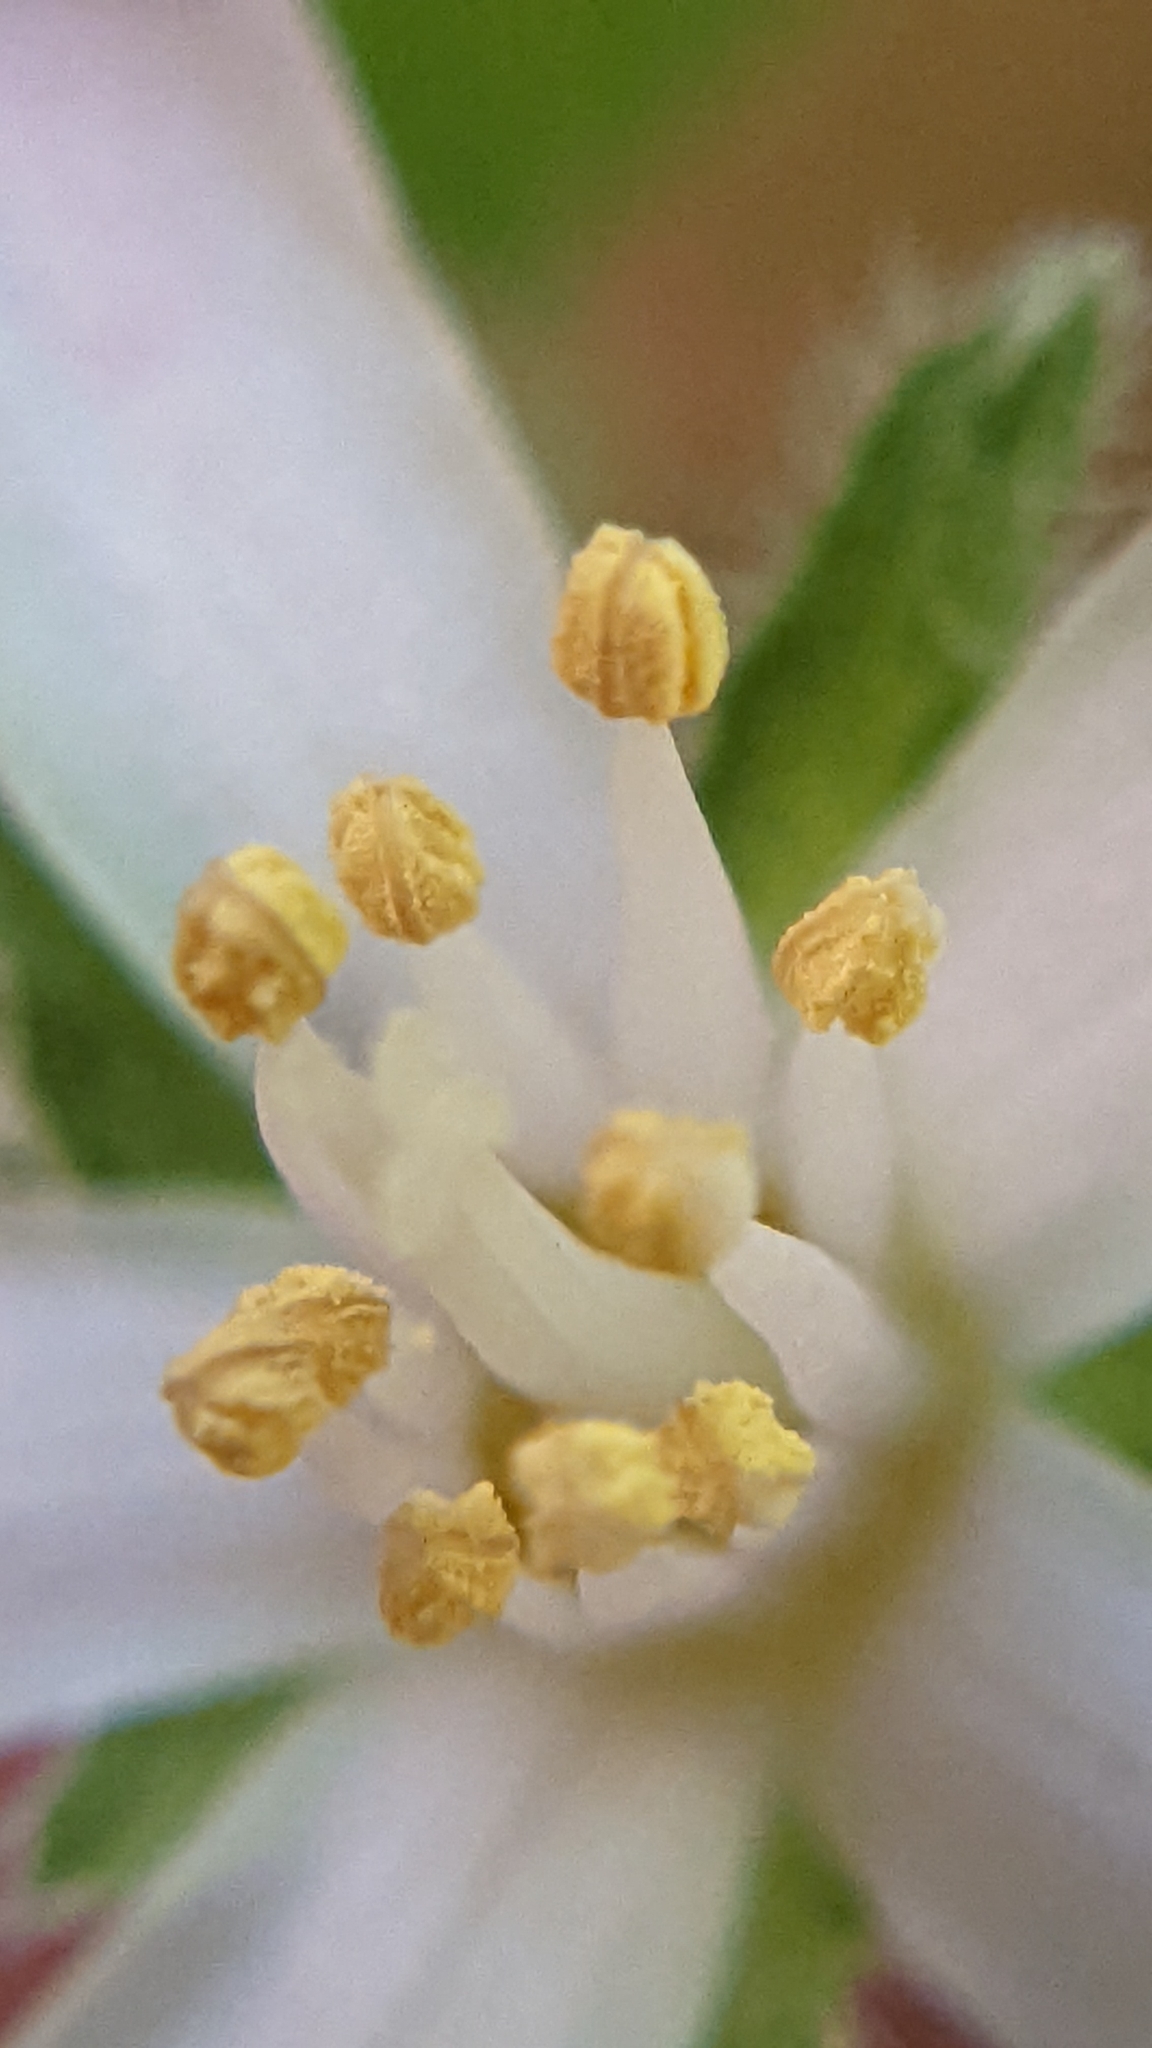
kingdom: Plantae
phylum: Tracheophyta
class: Magnoliopsida
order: Cornales
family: Hydrangeaceae
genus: Jamesia
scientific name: Jamesia americana
